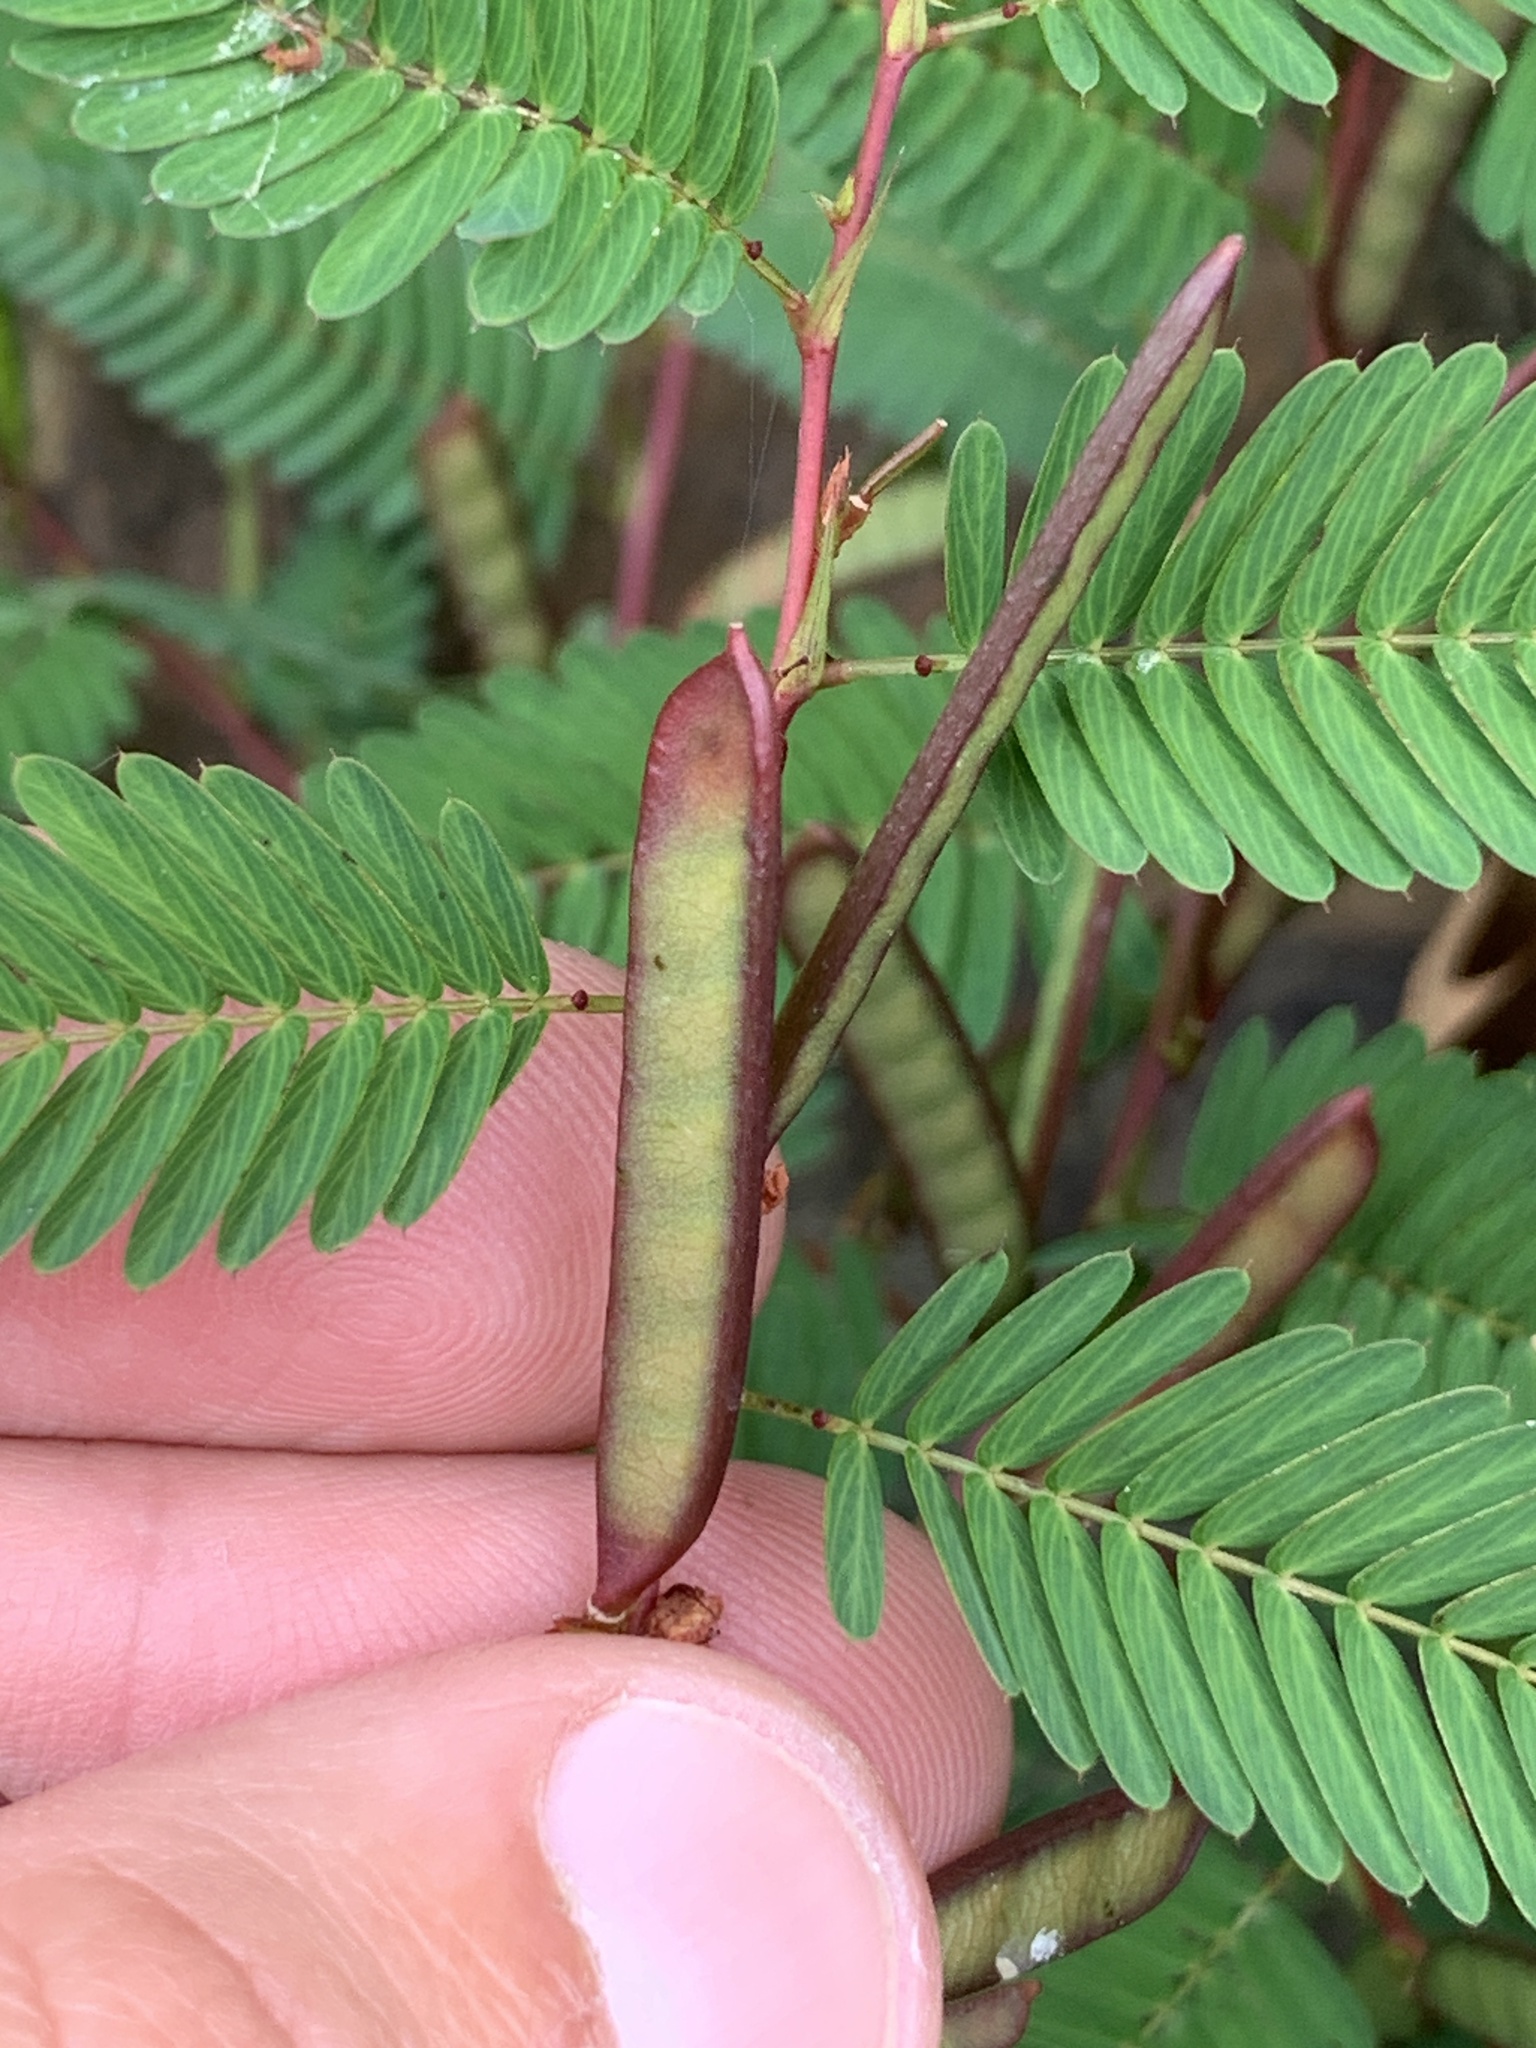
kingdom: Plantae
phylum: Tracheophyta
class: Magnoliopsida
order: Fabales
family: Fabaceae
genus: Chamaecrista
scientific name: Chamaecrista nictitans
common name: Sensitive cassia
